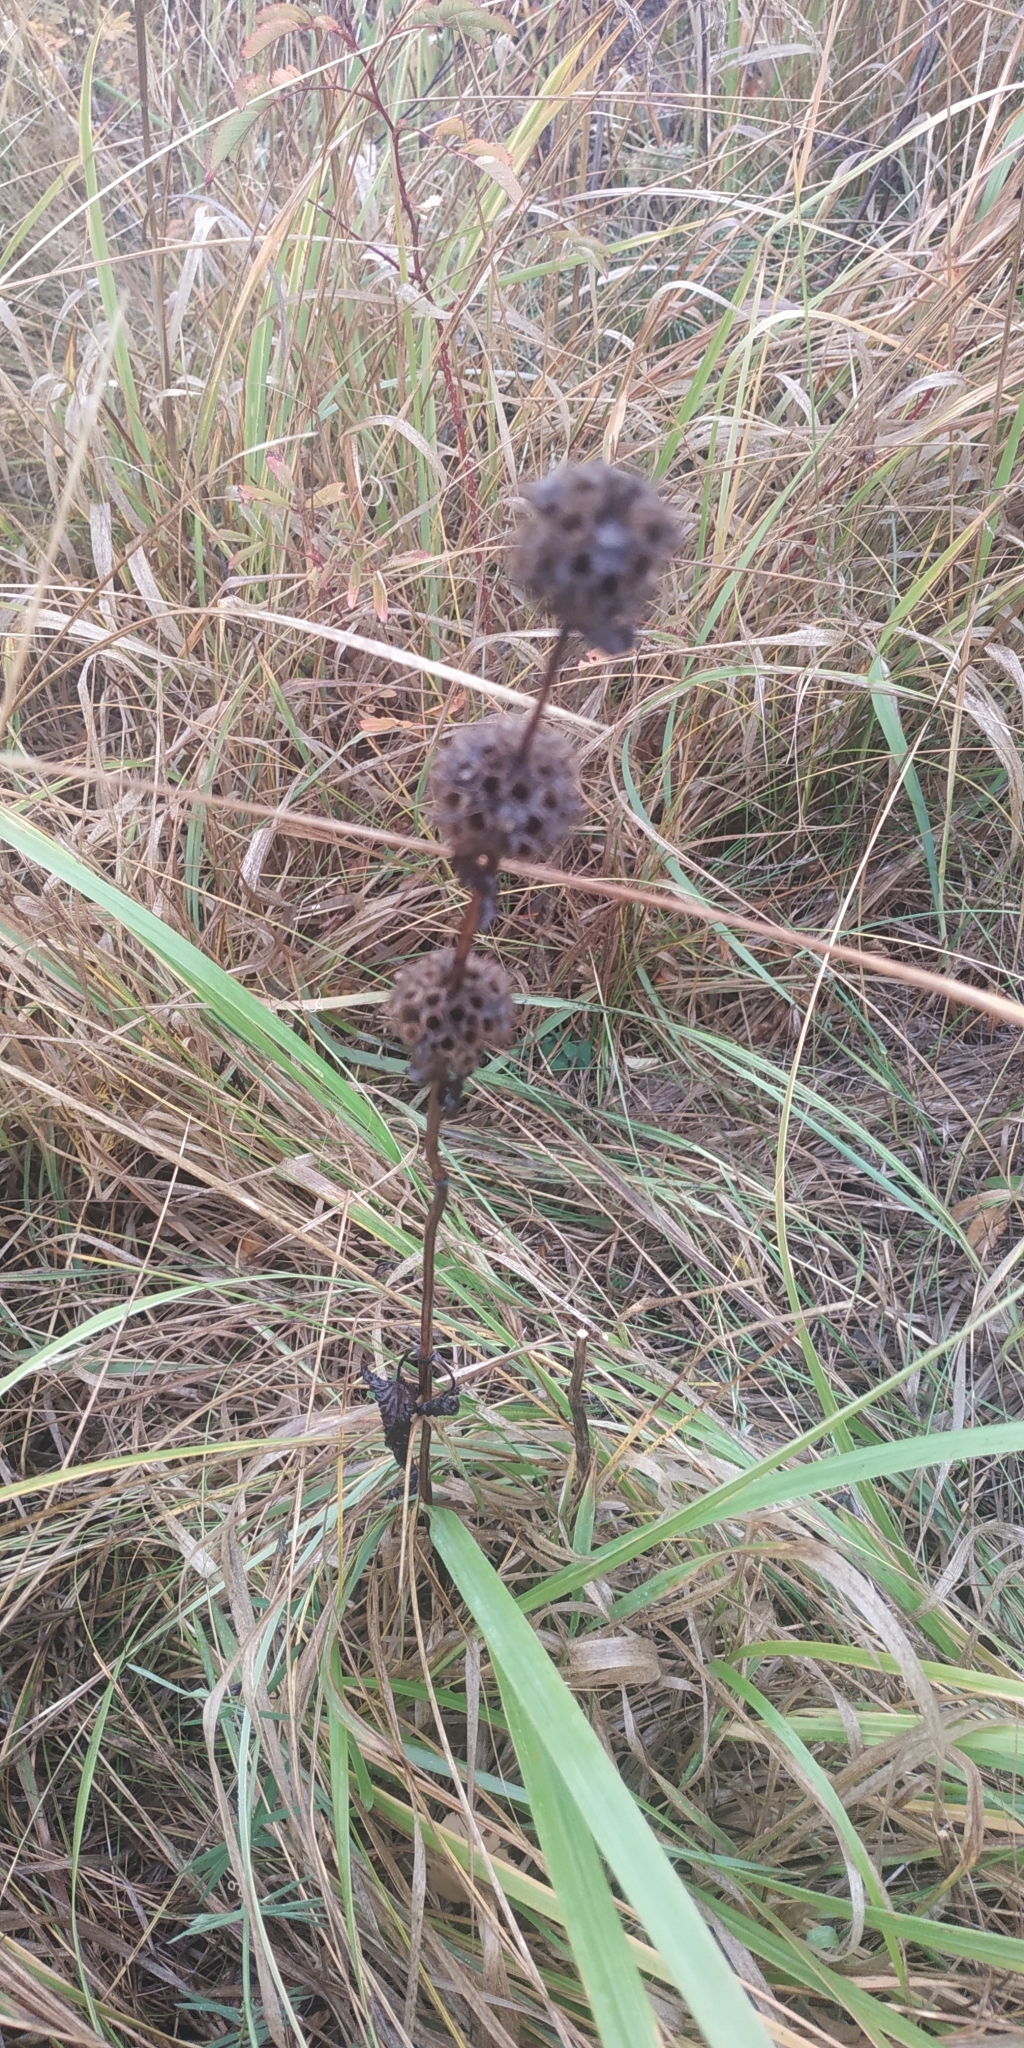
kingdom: Plantae
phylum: Tracheophyta
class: Magnoliopsida
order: Lamiales
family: Lamiaceae
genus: Phlomoides
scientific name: Phlomoides tuberosa
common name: Tuberous jerusalem sage
